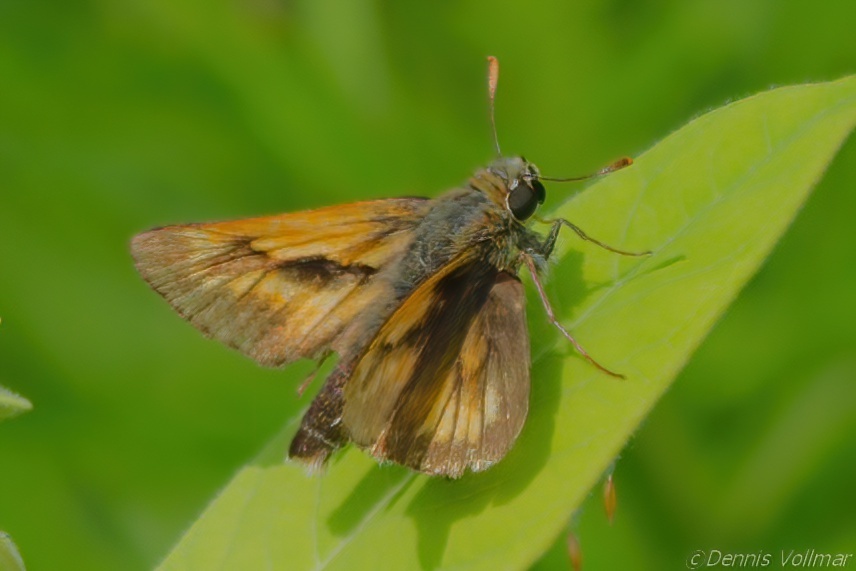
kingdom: Animalia
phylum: Arthropoda
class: Insecta
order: Lepidoptera
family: Hesperiidae
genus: Polites
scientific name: Polites mystic
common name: Long dash
